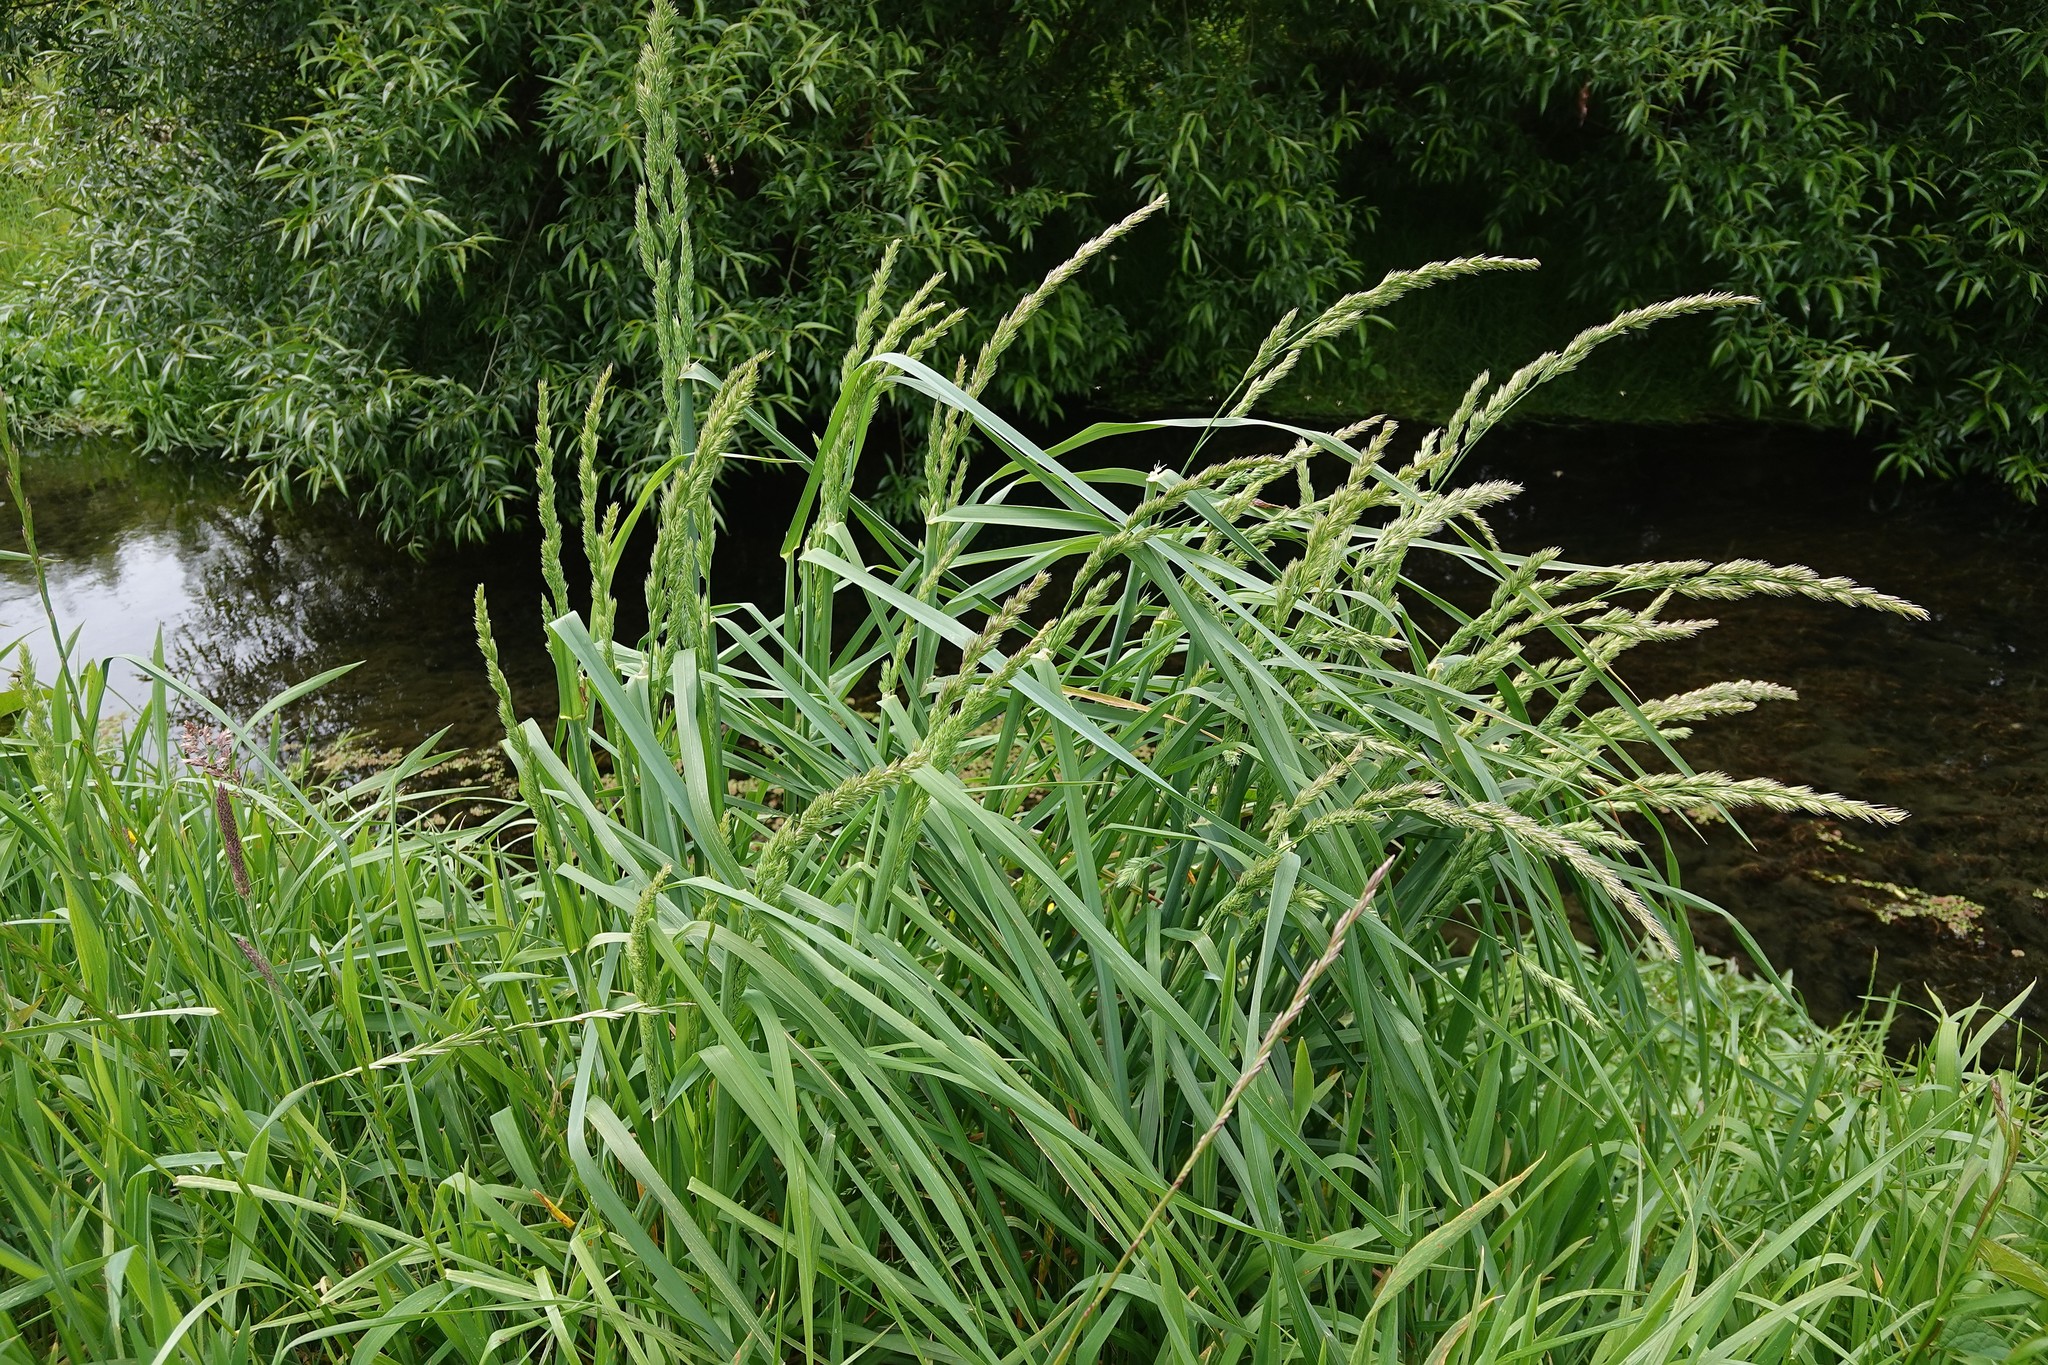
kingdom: Plantae
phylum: Tracheophyta
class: Liliopsida
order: Poales
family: Poaceae
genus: Dactylis
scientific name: Dactylis glomerata
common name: Orchardgrass
